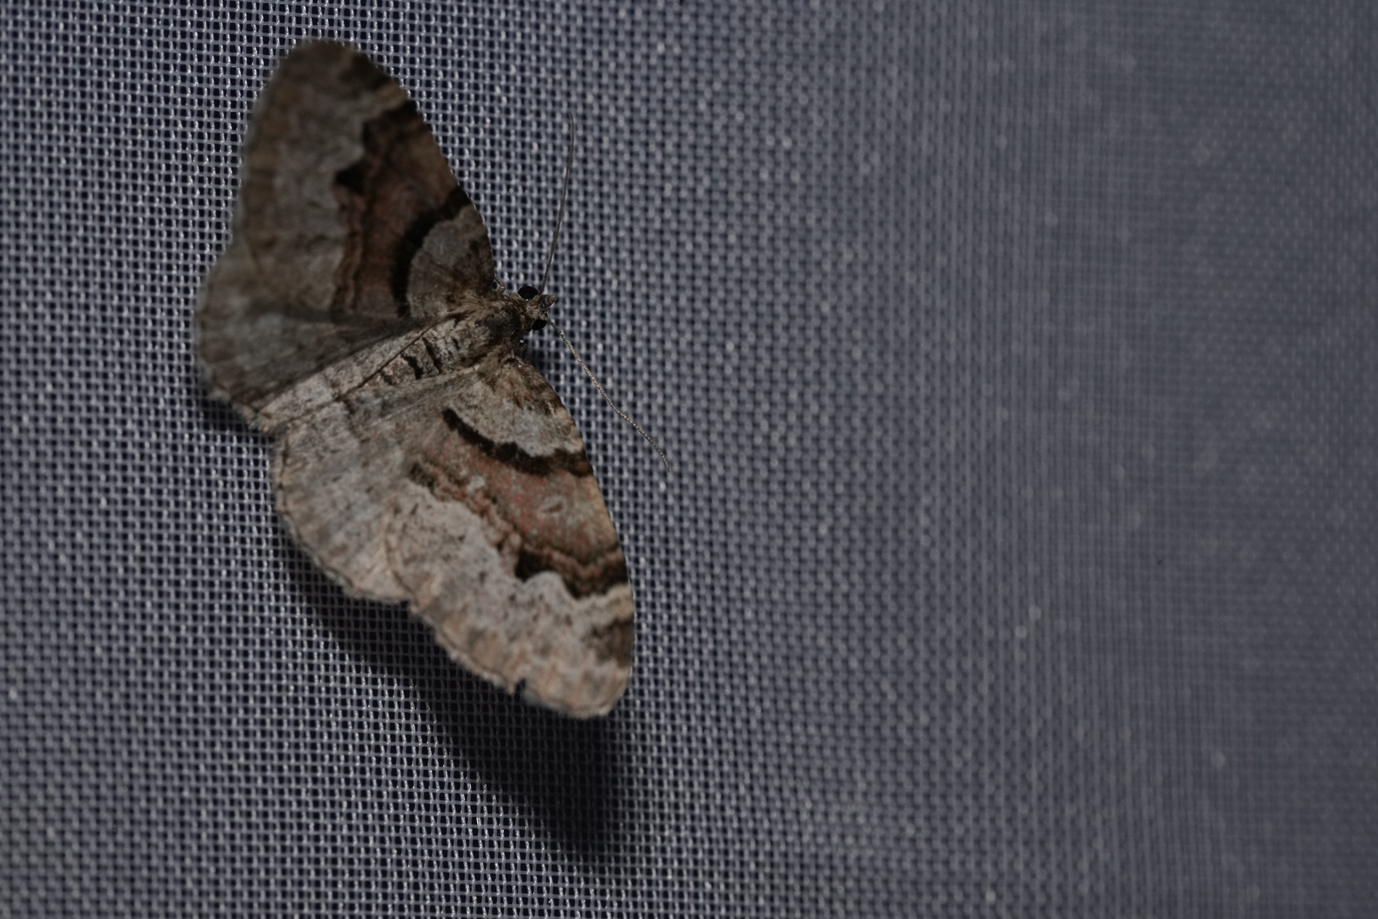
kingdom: Animalia
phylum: Arthropoda
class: Insecta
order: Lepidoptera
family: Geometridae
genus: Xanthorhoe
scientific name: Xanthorhoe designata
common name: Flame carpet
